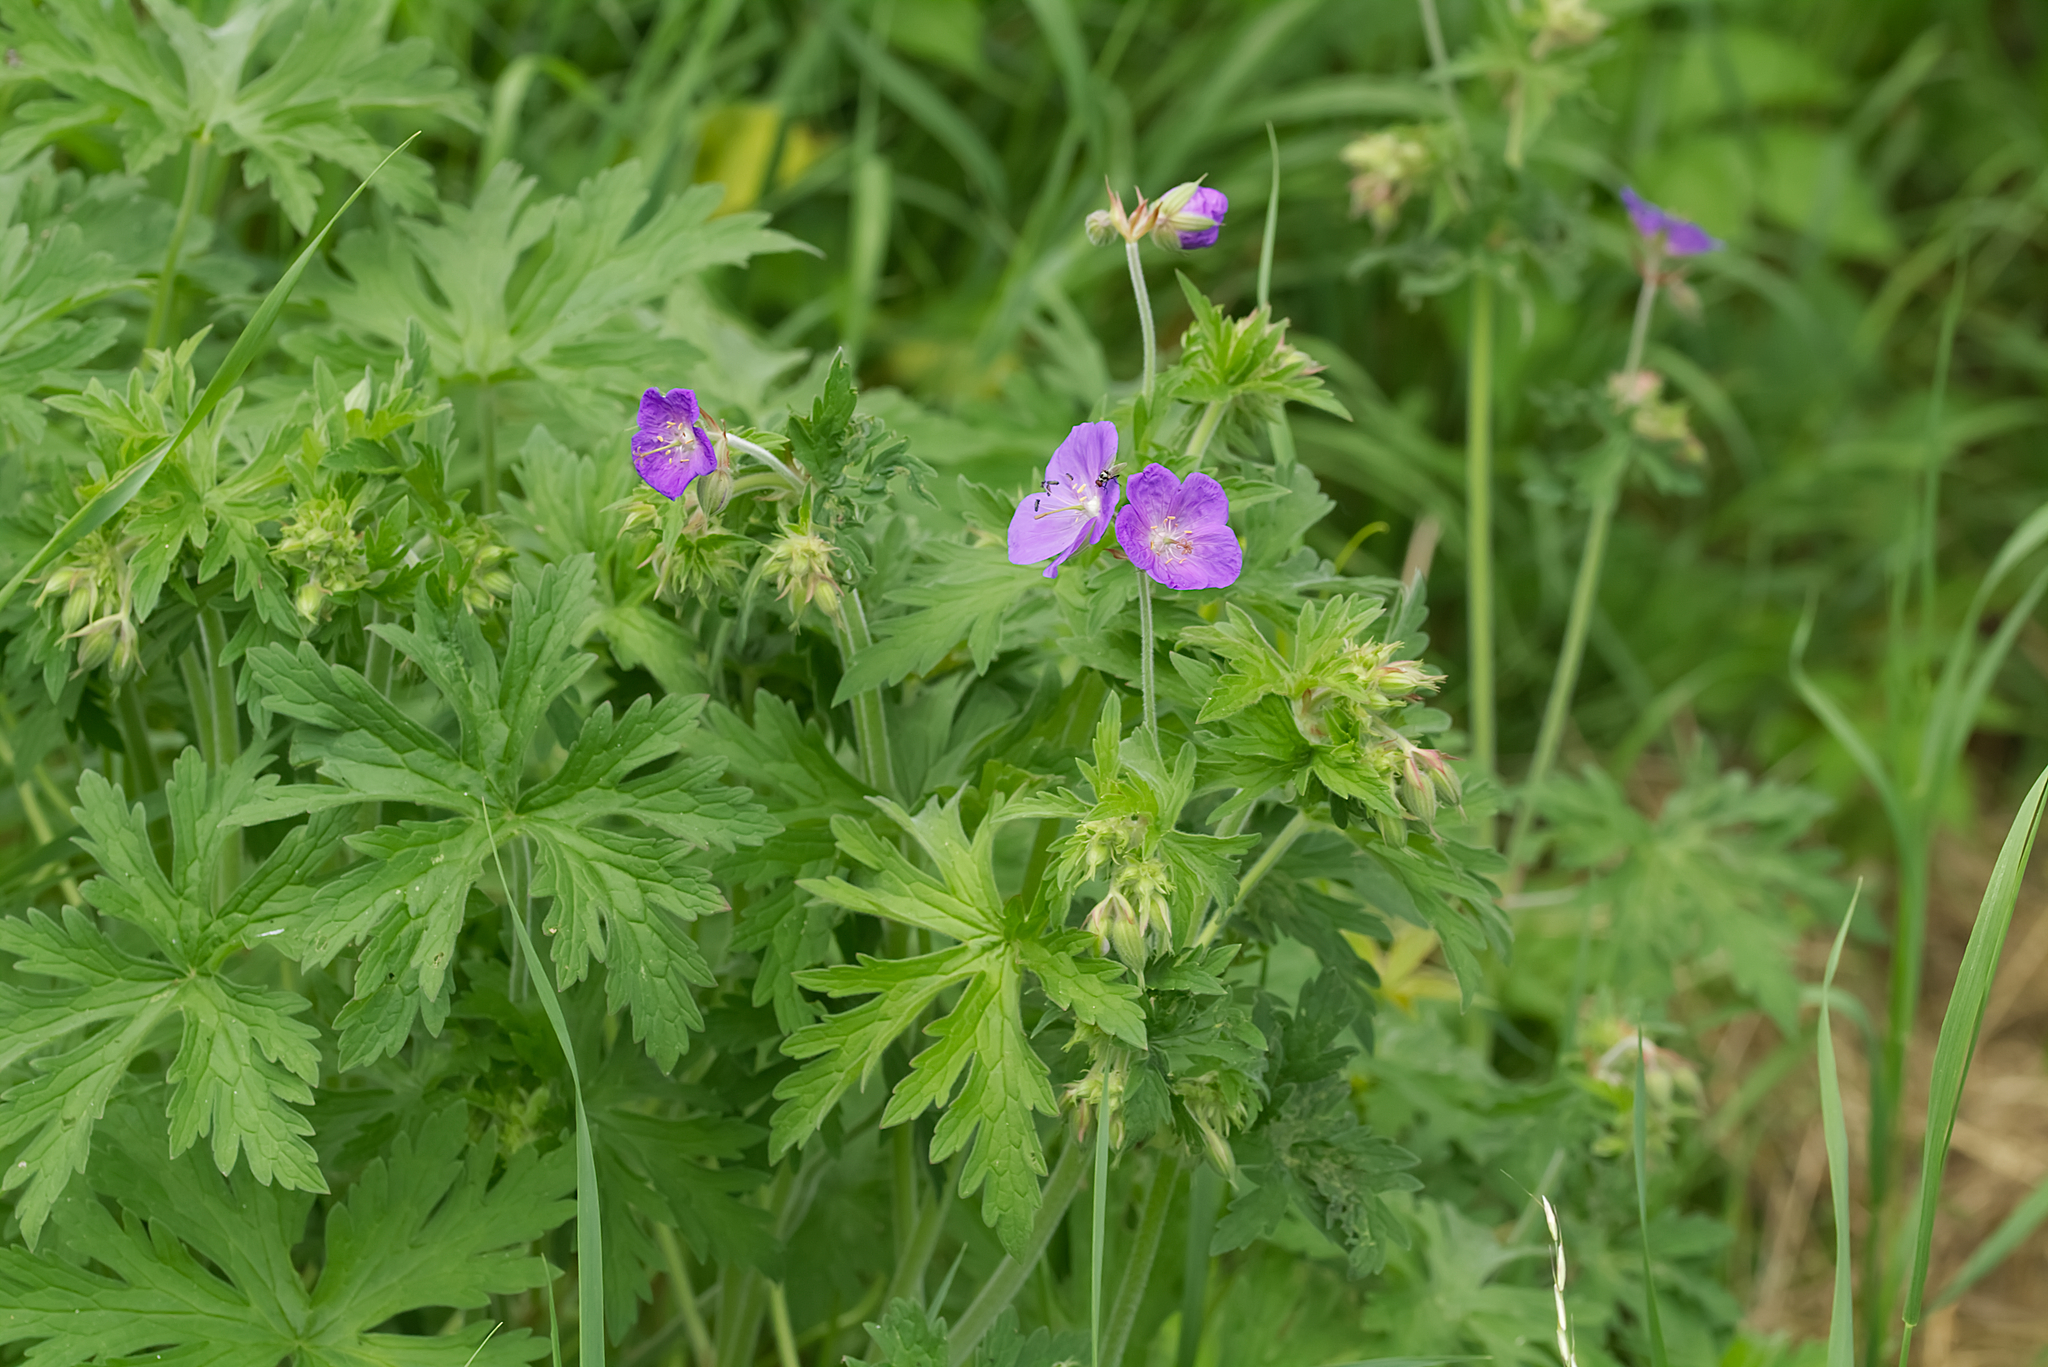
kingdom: Plantae
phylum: Tracheophyta
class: Magnoliopsida
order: Geraniales
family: Geraniaceae
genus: Geranium
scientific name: Geranium pratense
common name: Meadow crane's-bill
